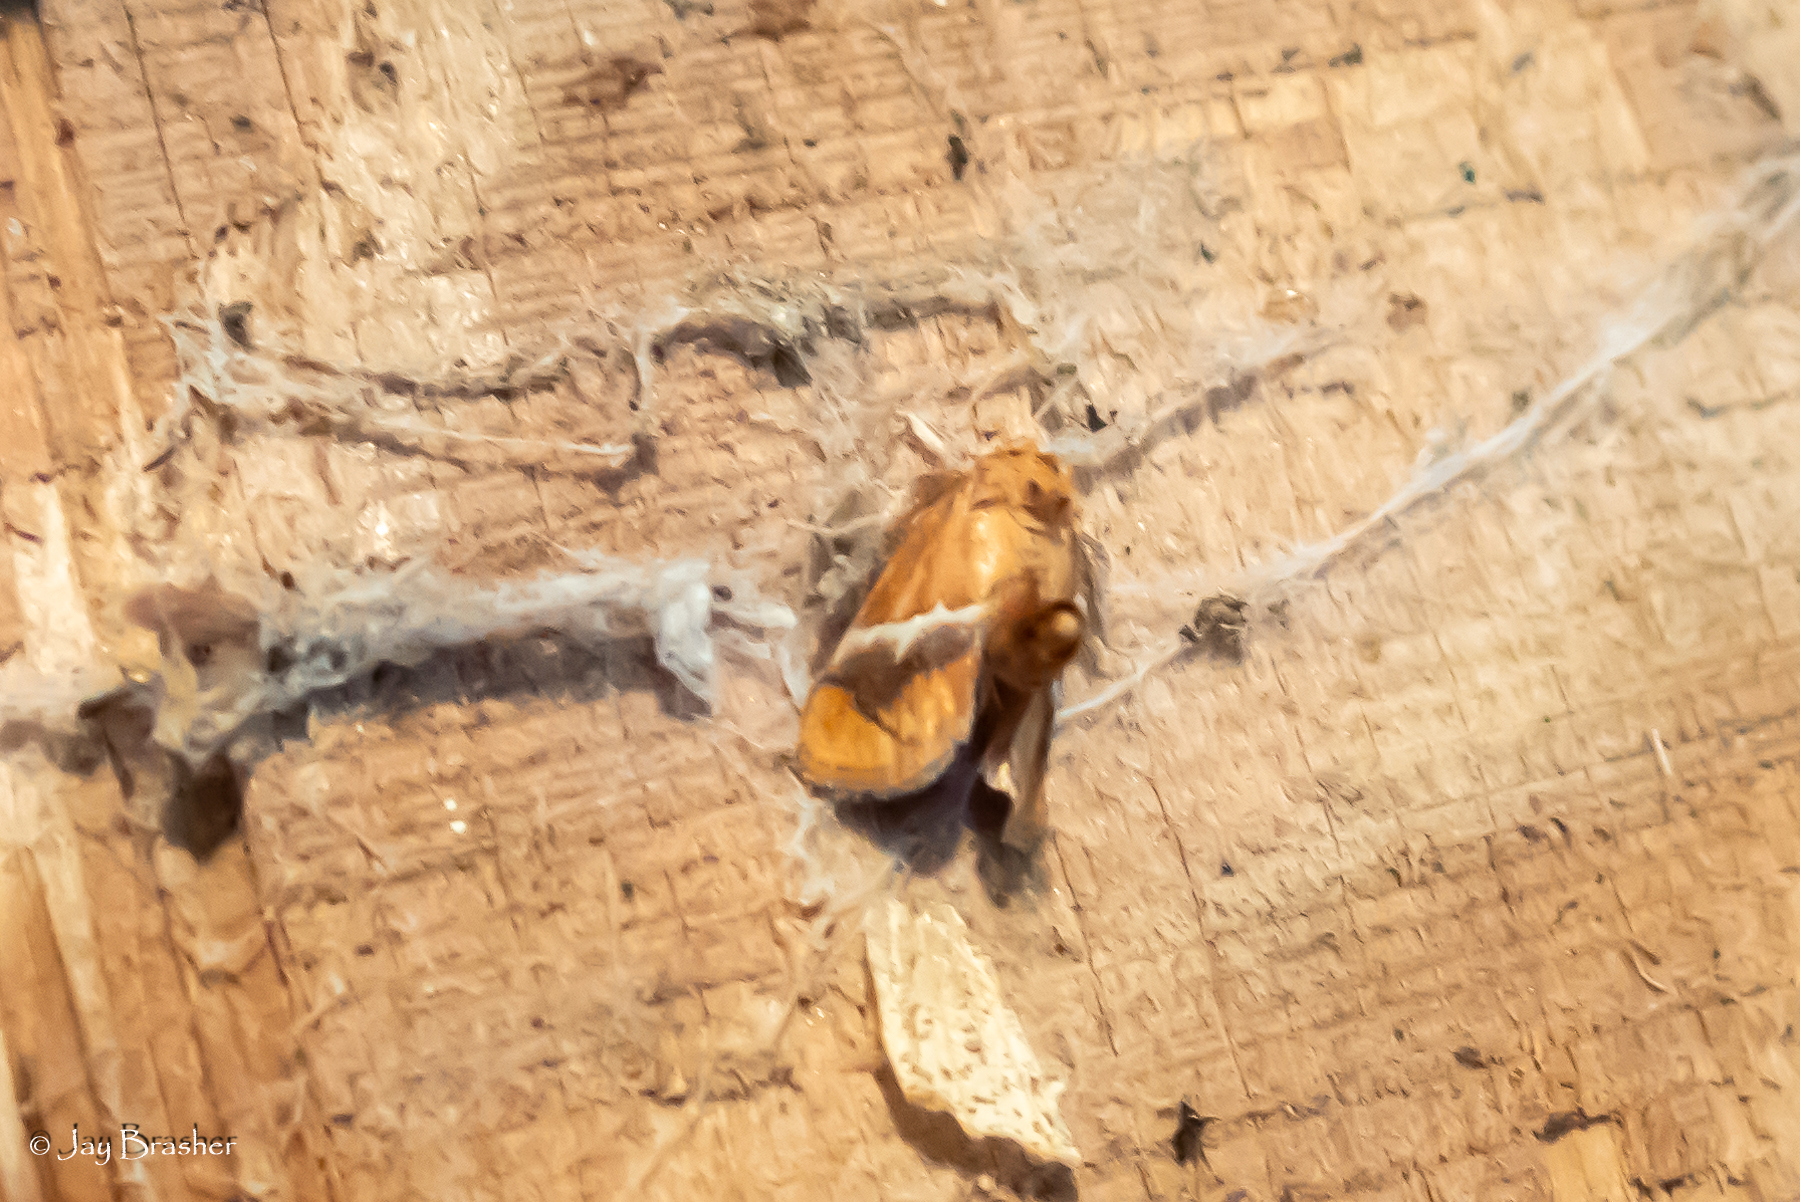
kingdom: Animalia
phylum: Arthropoda
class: Insecta
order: Lepidoptera
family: Limacodidae
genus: Lithacodes
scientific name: Lithacodes fasciola
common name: Yellow-shouldered slug moth
